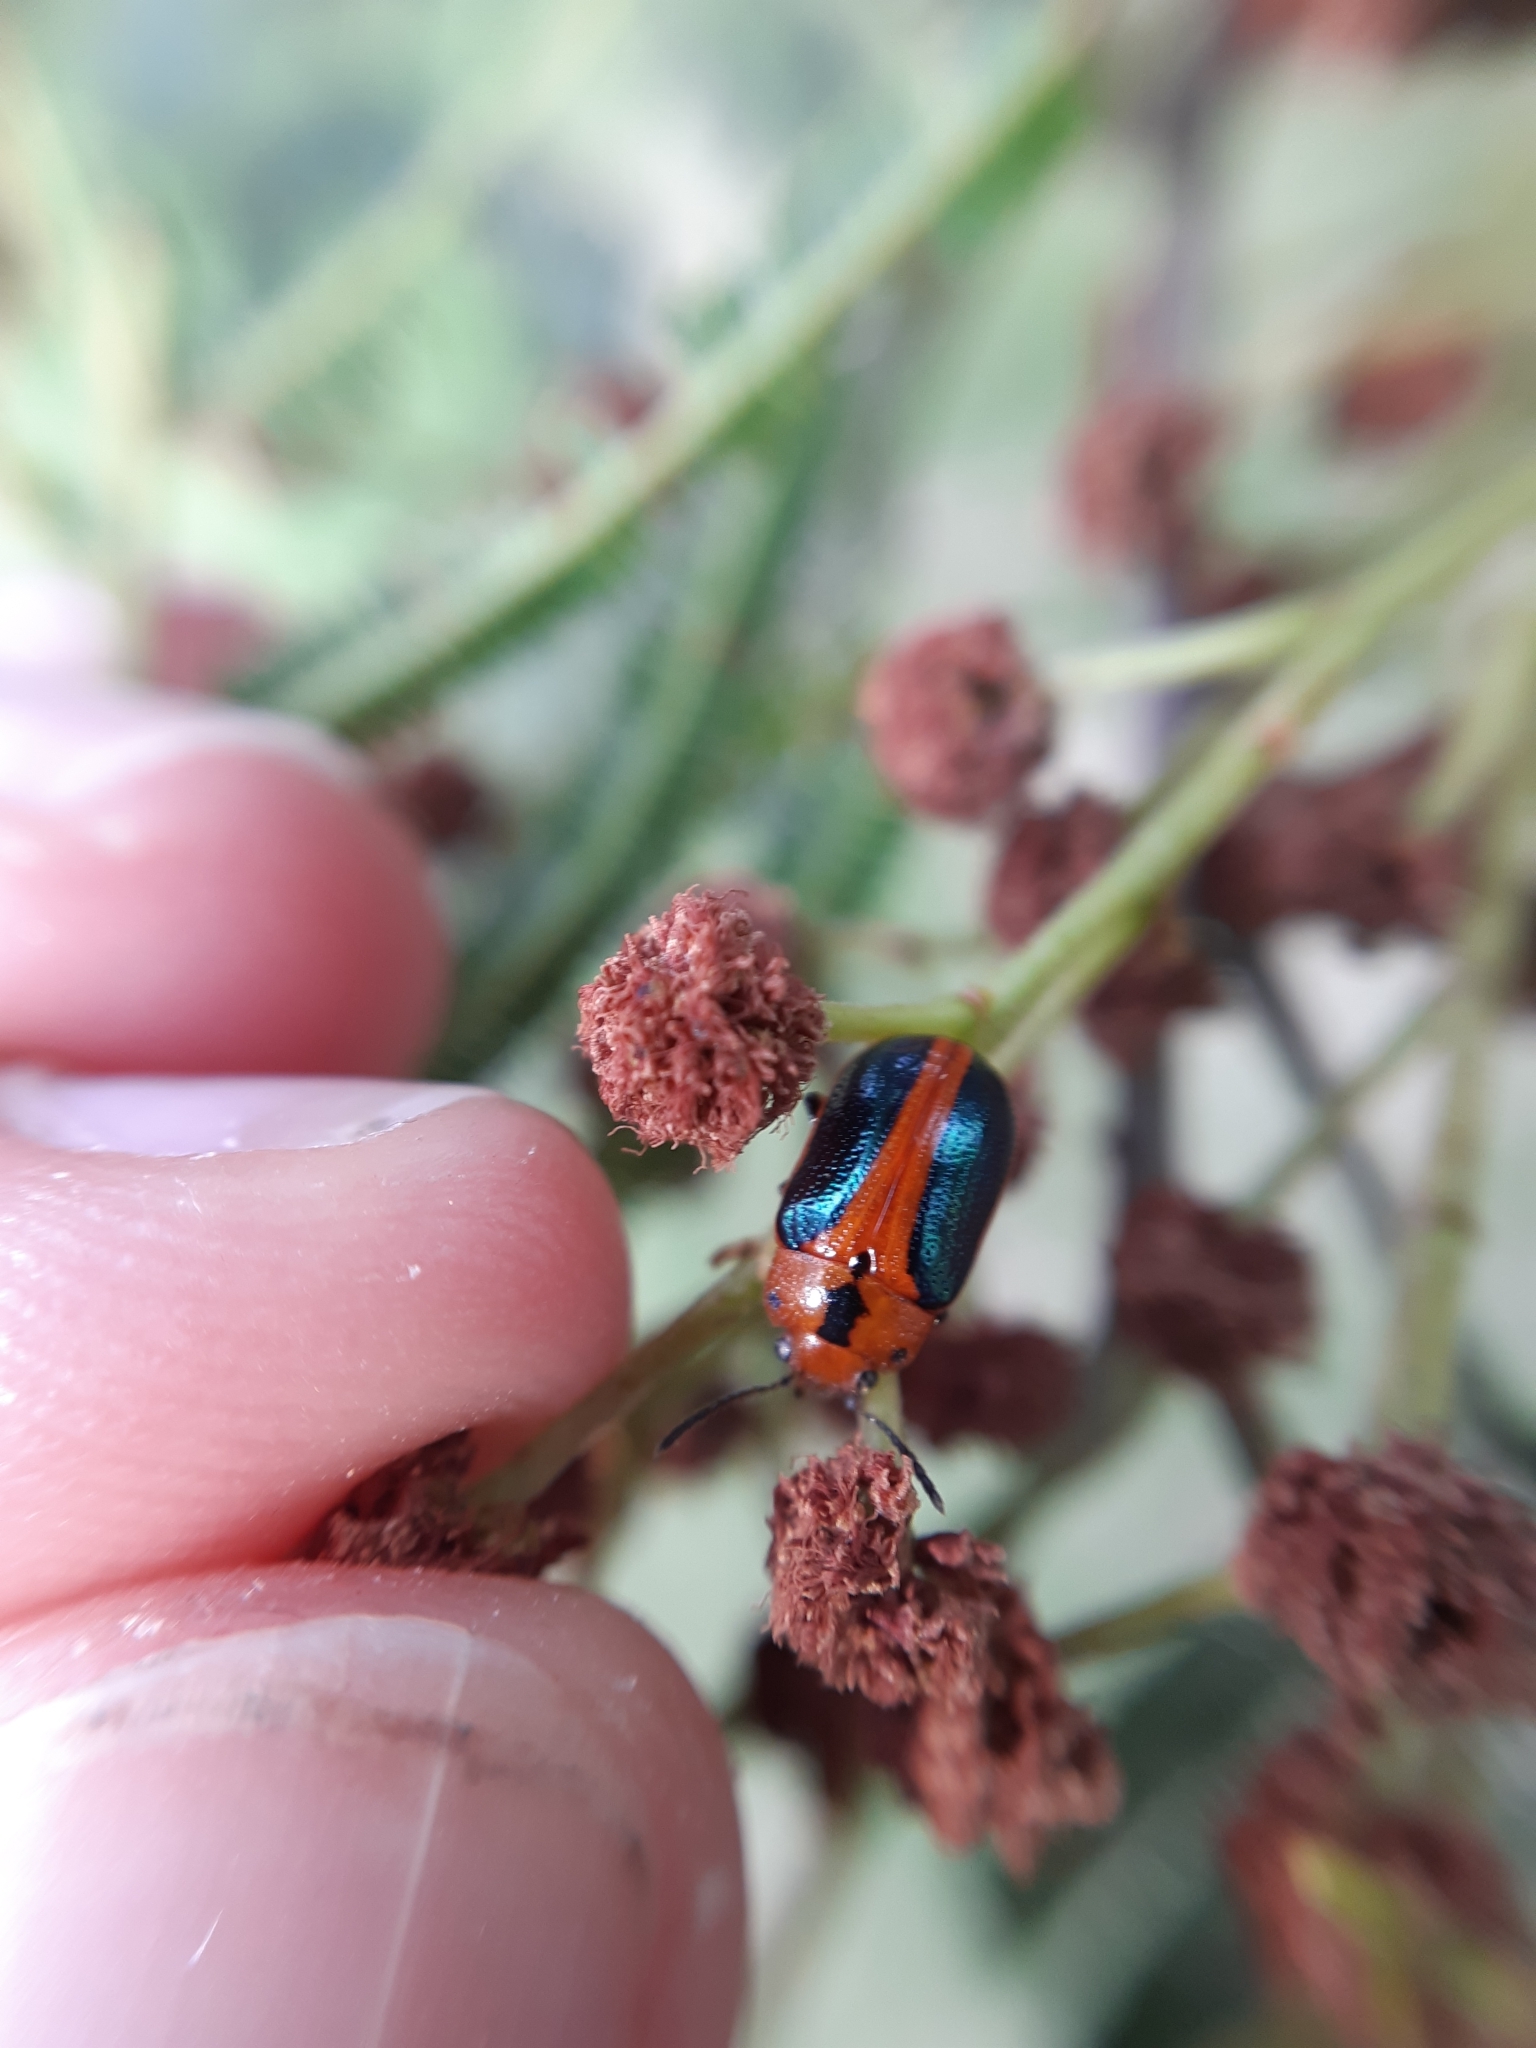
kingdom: Animalia
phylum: Arthropoda
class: Insecta
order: Coleoptera
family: Chrysomelidae
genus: Calomela
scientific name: Calomela
